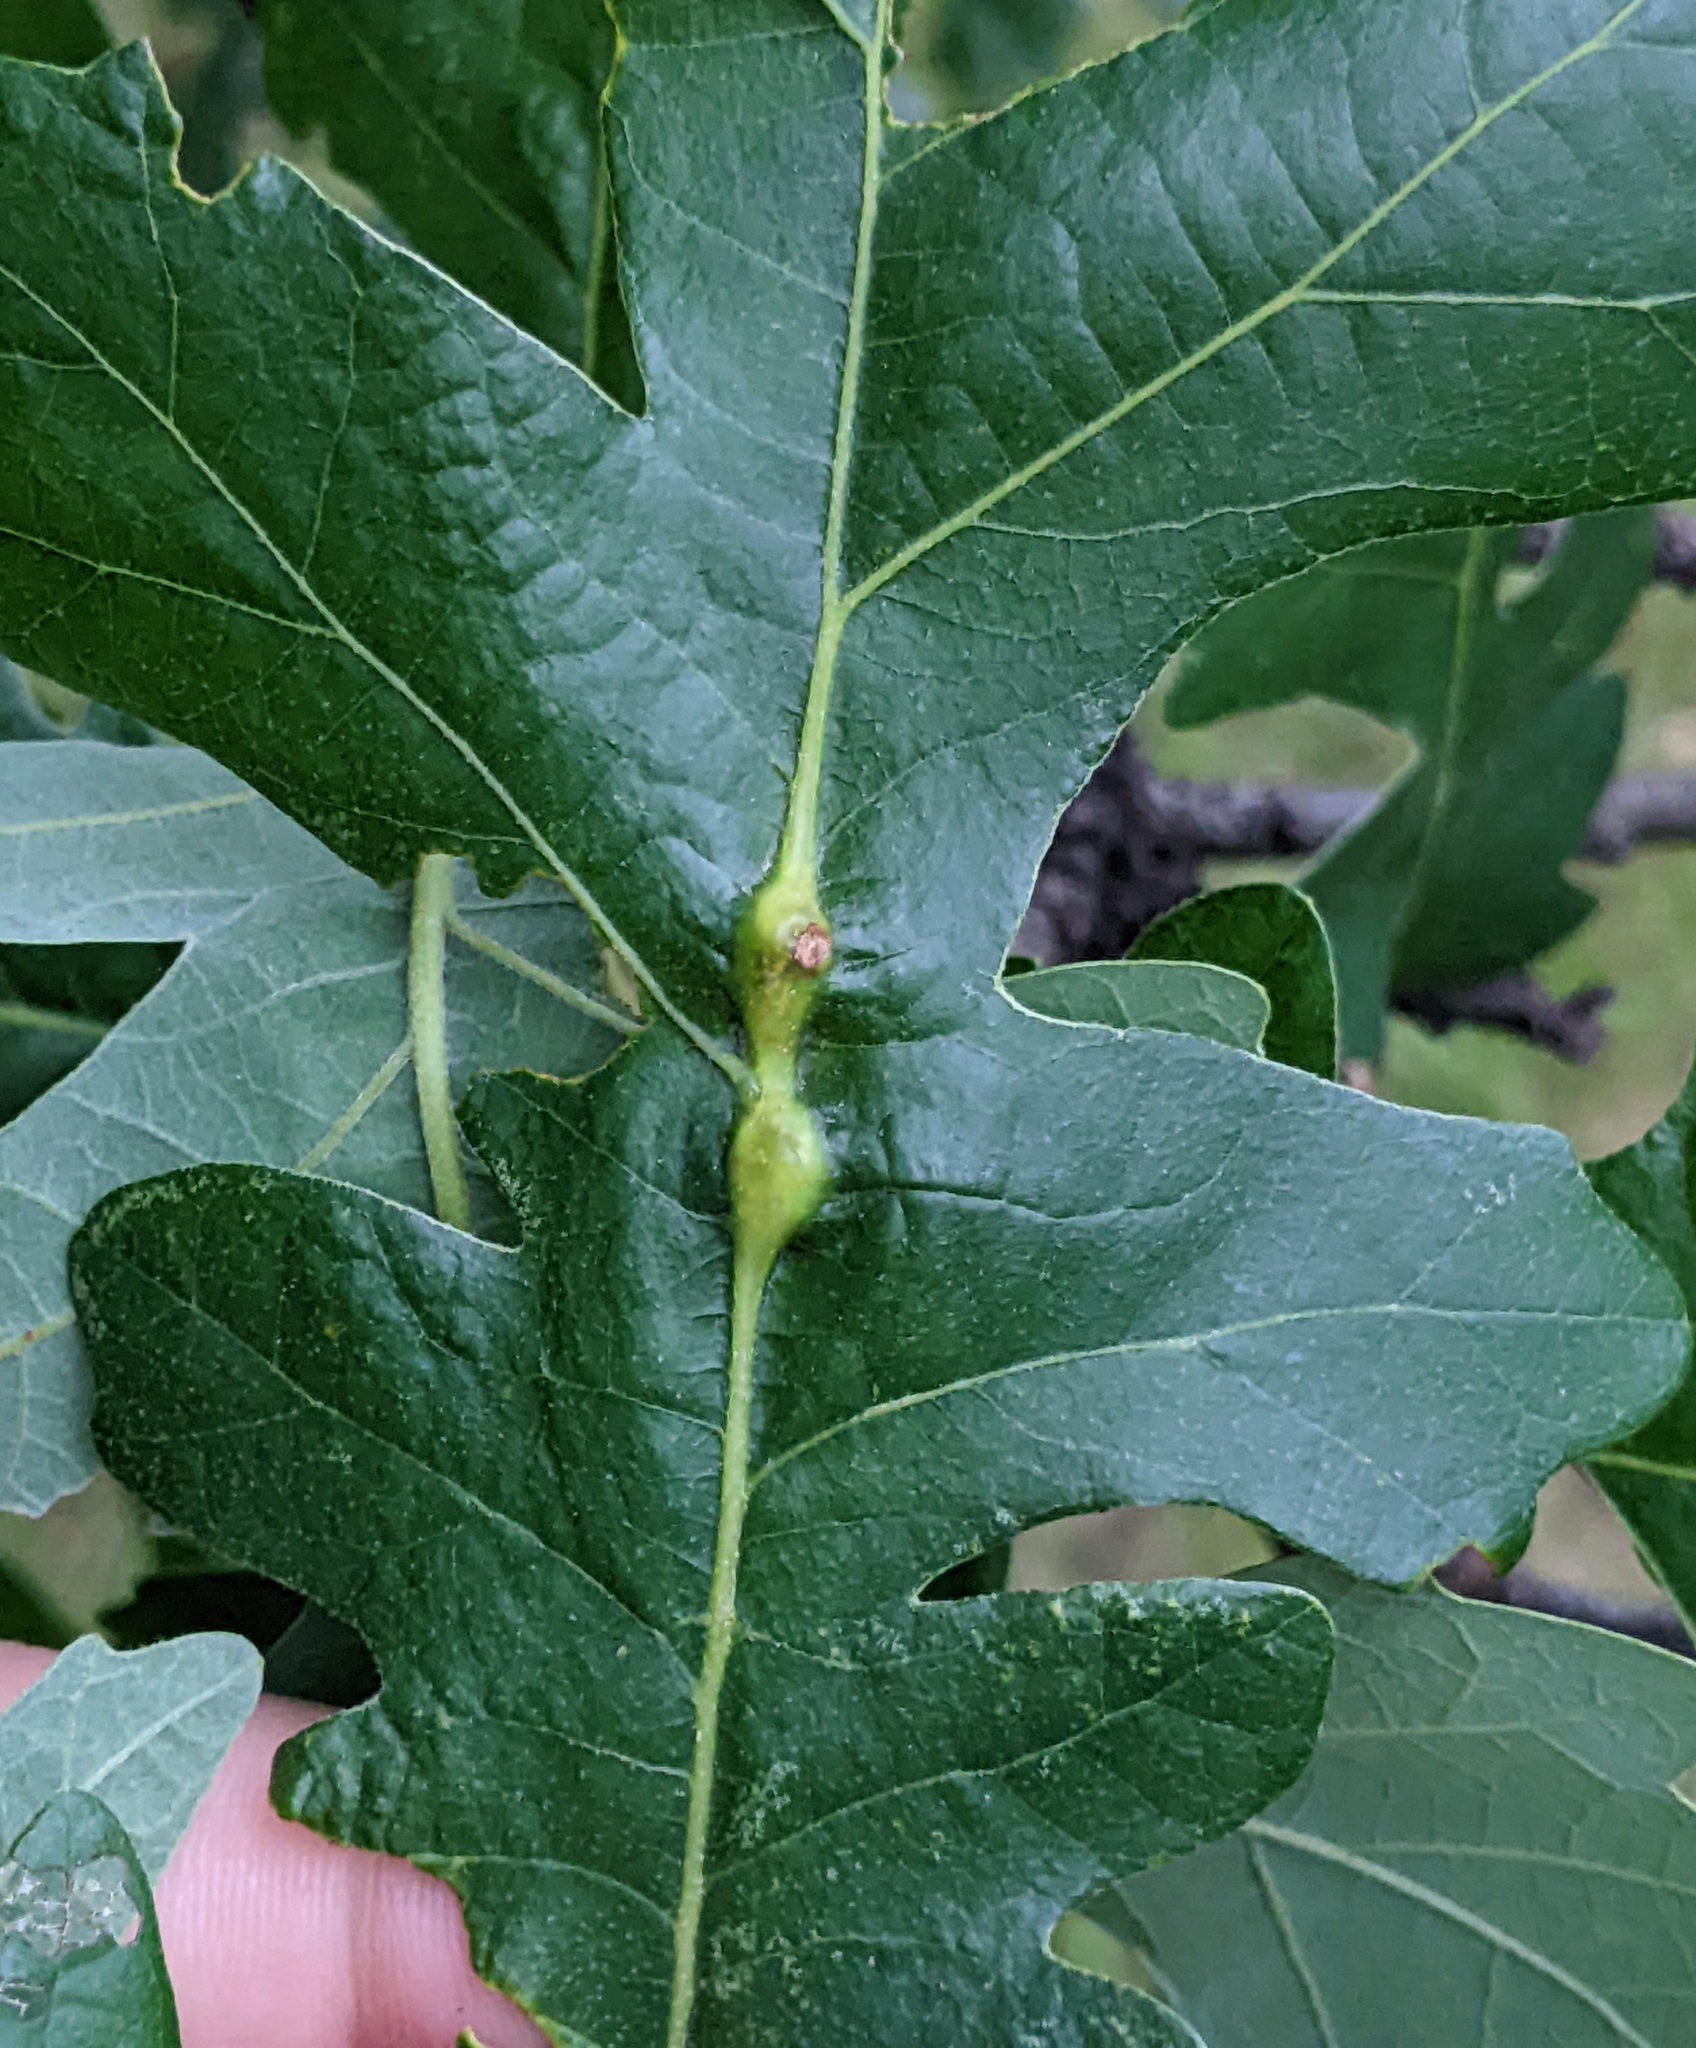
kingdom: Animalia
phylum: Arthropoda
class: Insecta
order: Hymenoptera
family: Cynipidae
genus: Bassettia
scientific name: Bassettia flavipes
